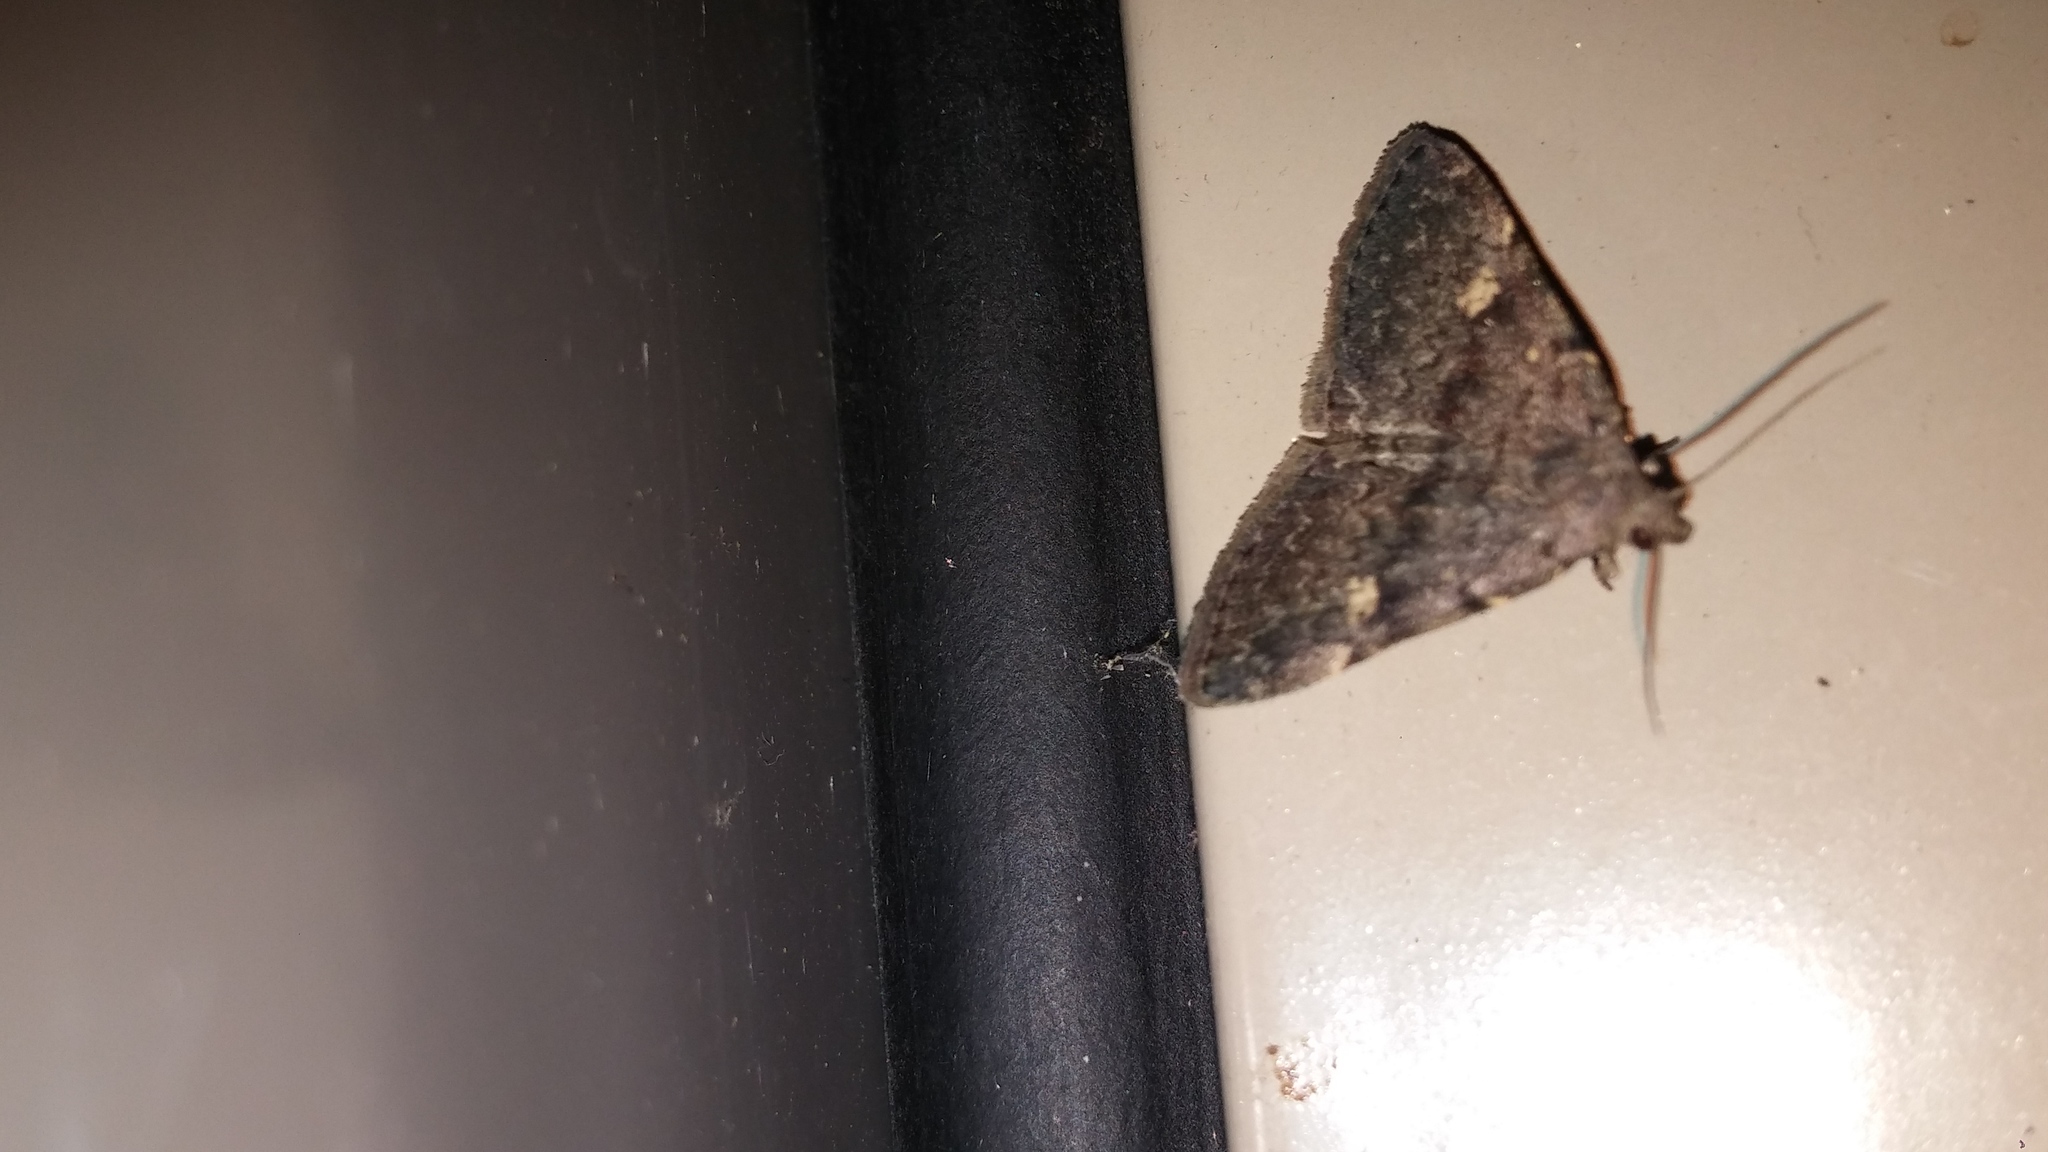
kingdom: Animalia
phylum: Arthropoda
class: Insecta
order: Lepidoptera
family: Erebidae
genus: Idia
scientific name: Idia aemula
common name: Common idia moth
